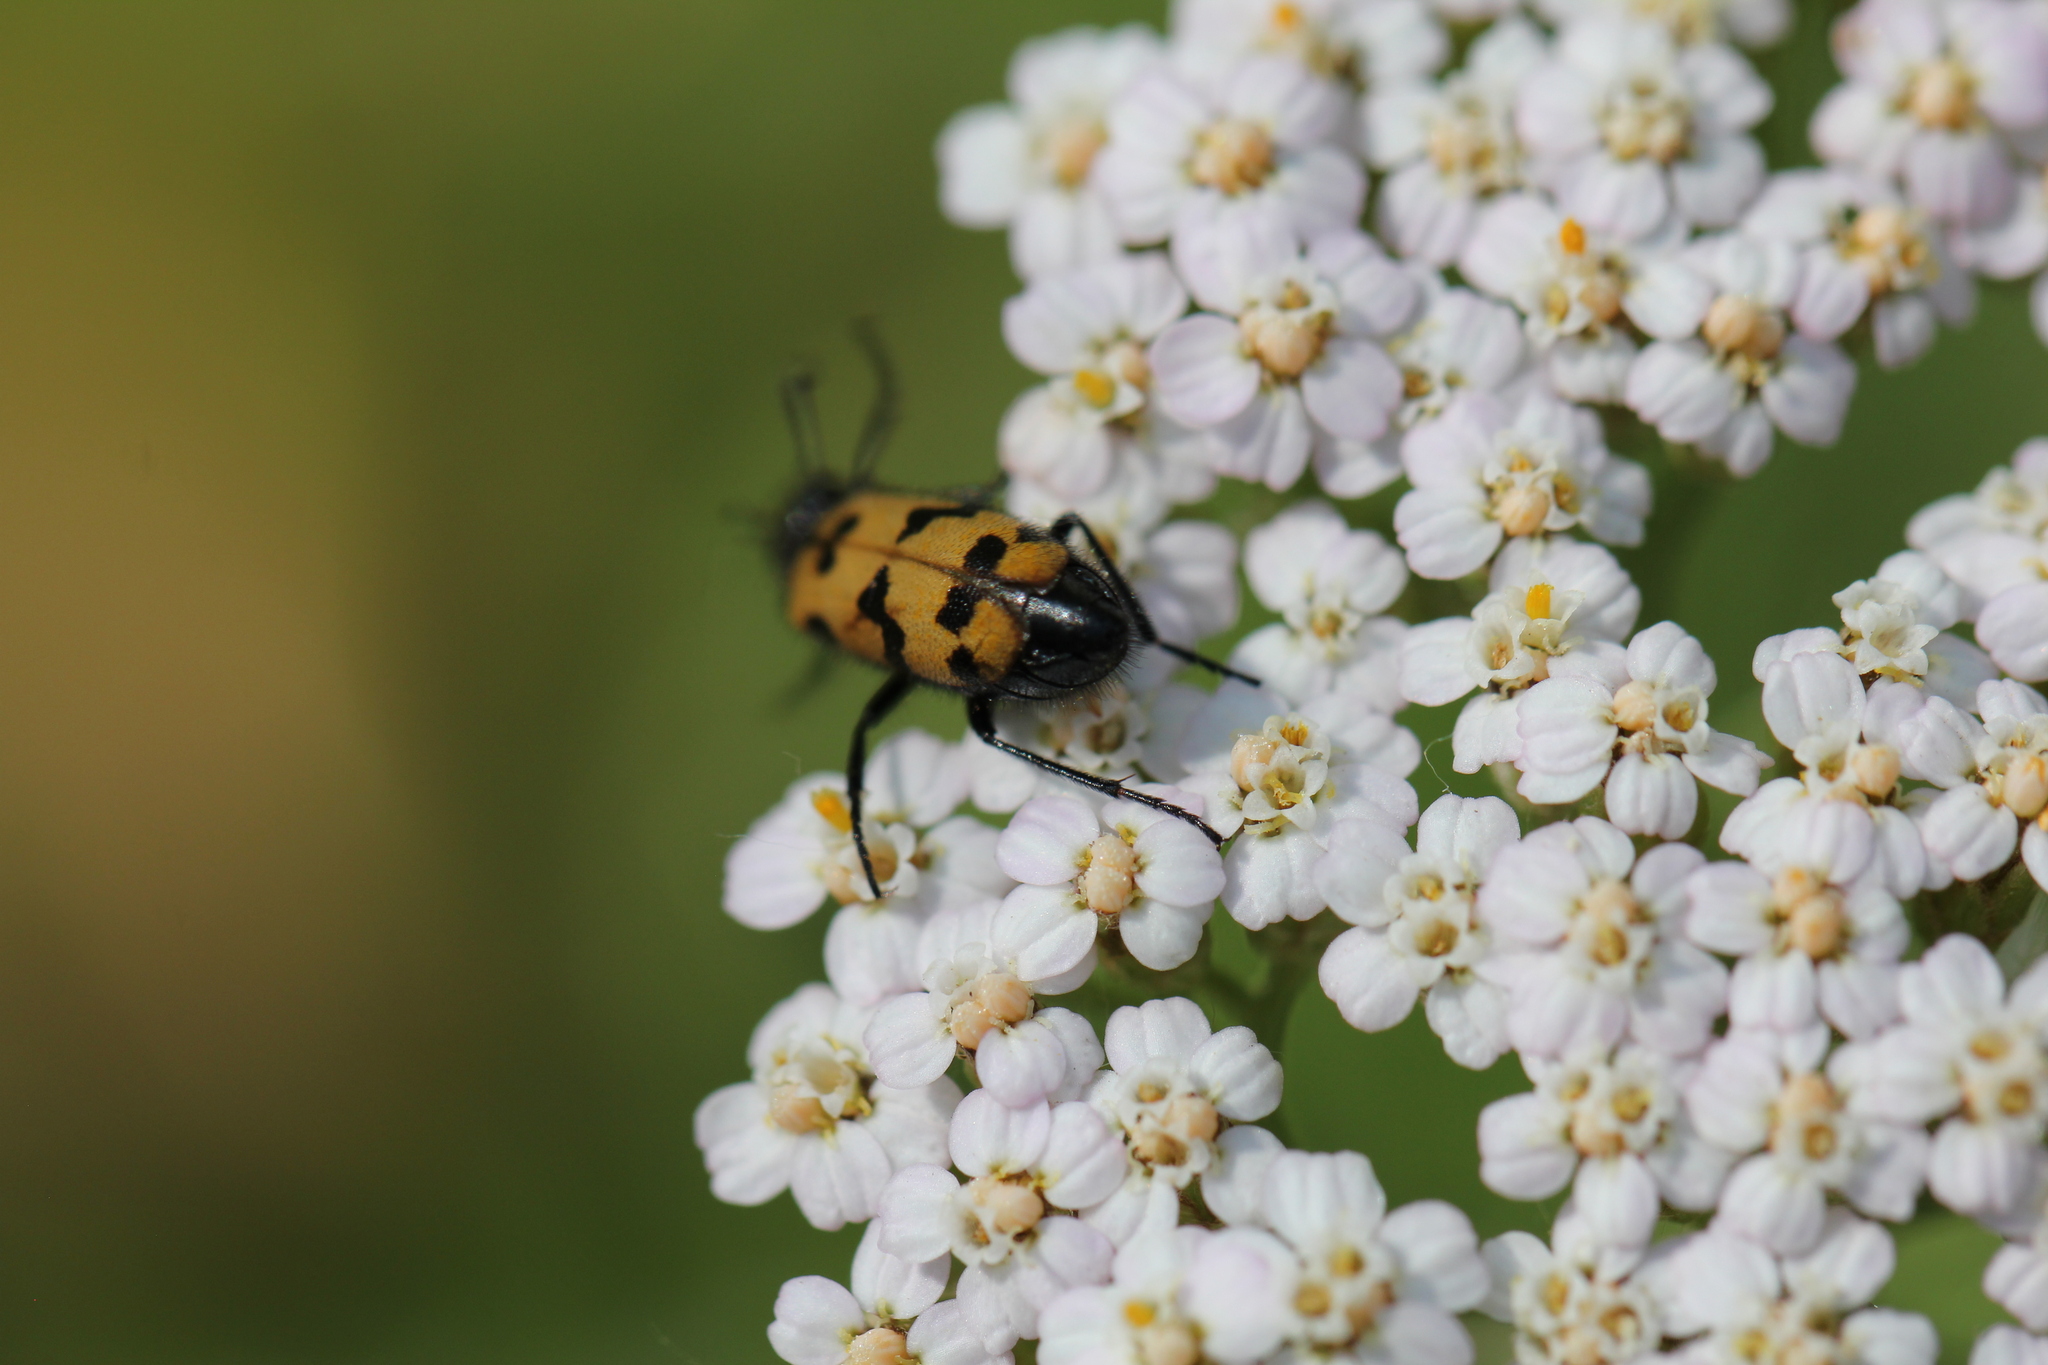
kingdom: Animalia
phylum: Arthropoda
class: Insecta
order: Coleoptera
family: Meloidae
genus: Mylabris
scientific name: Mylabris geminata
